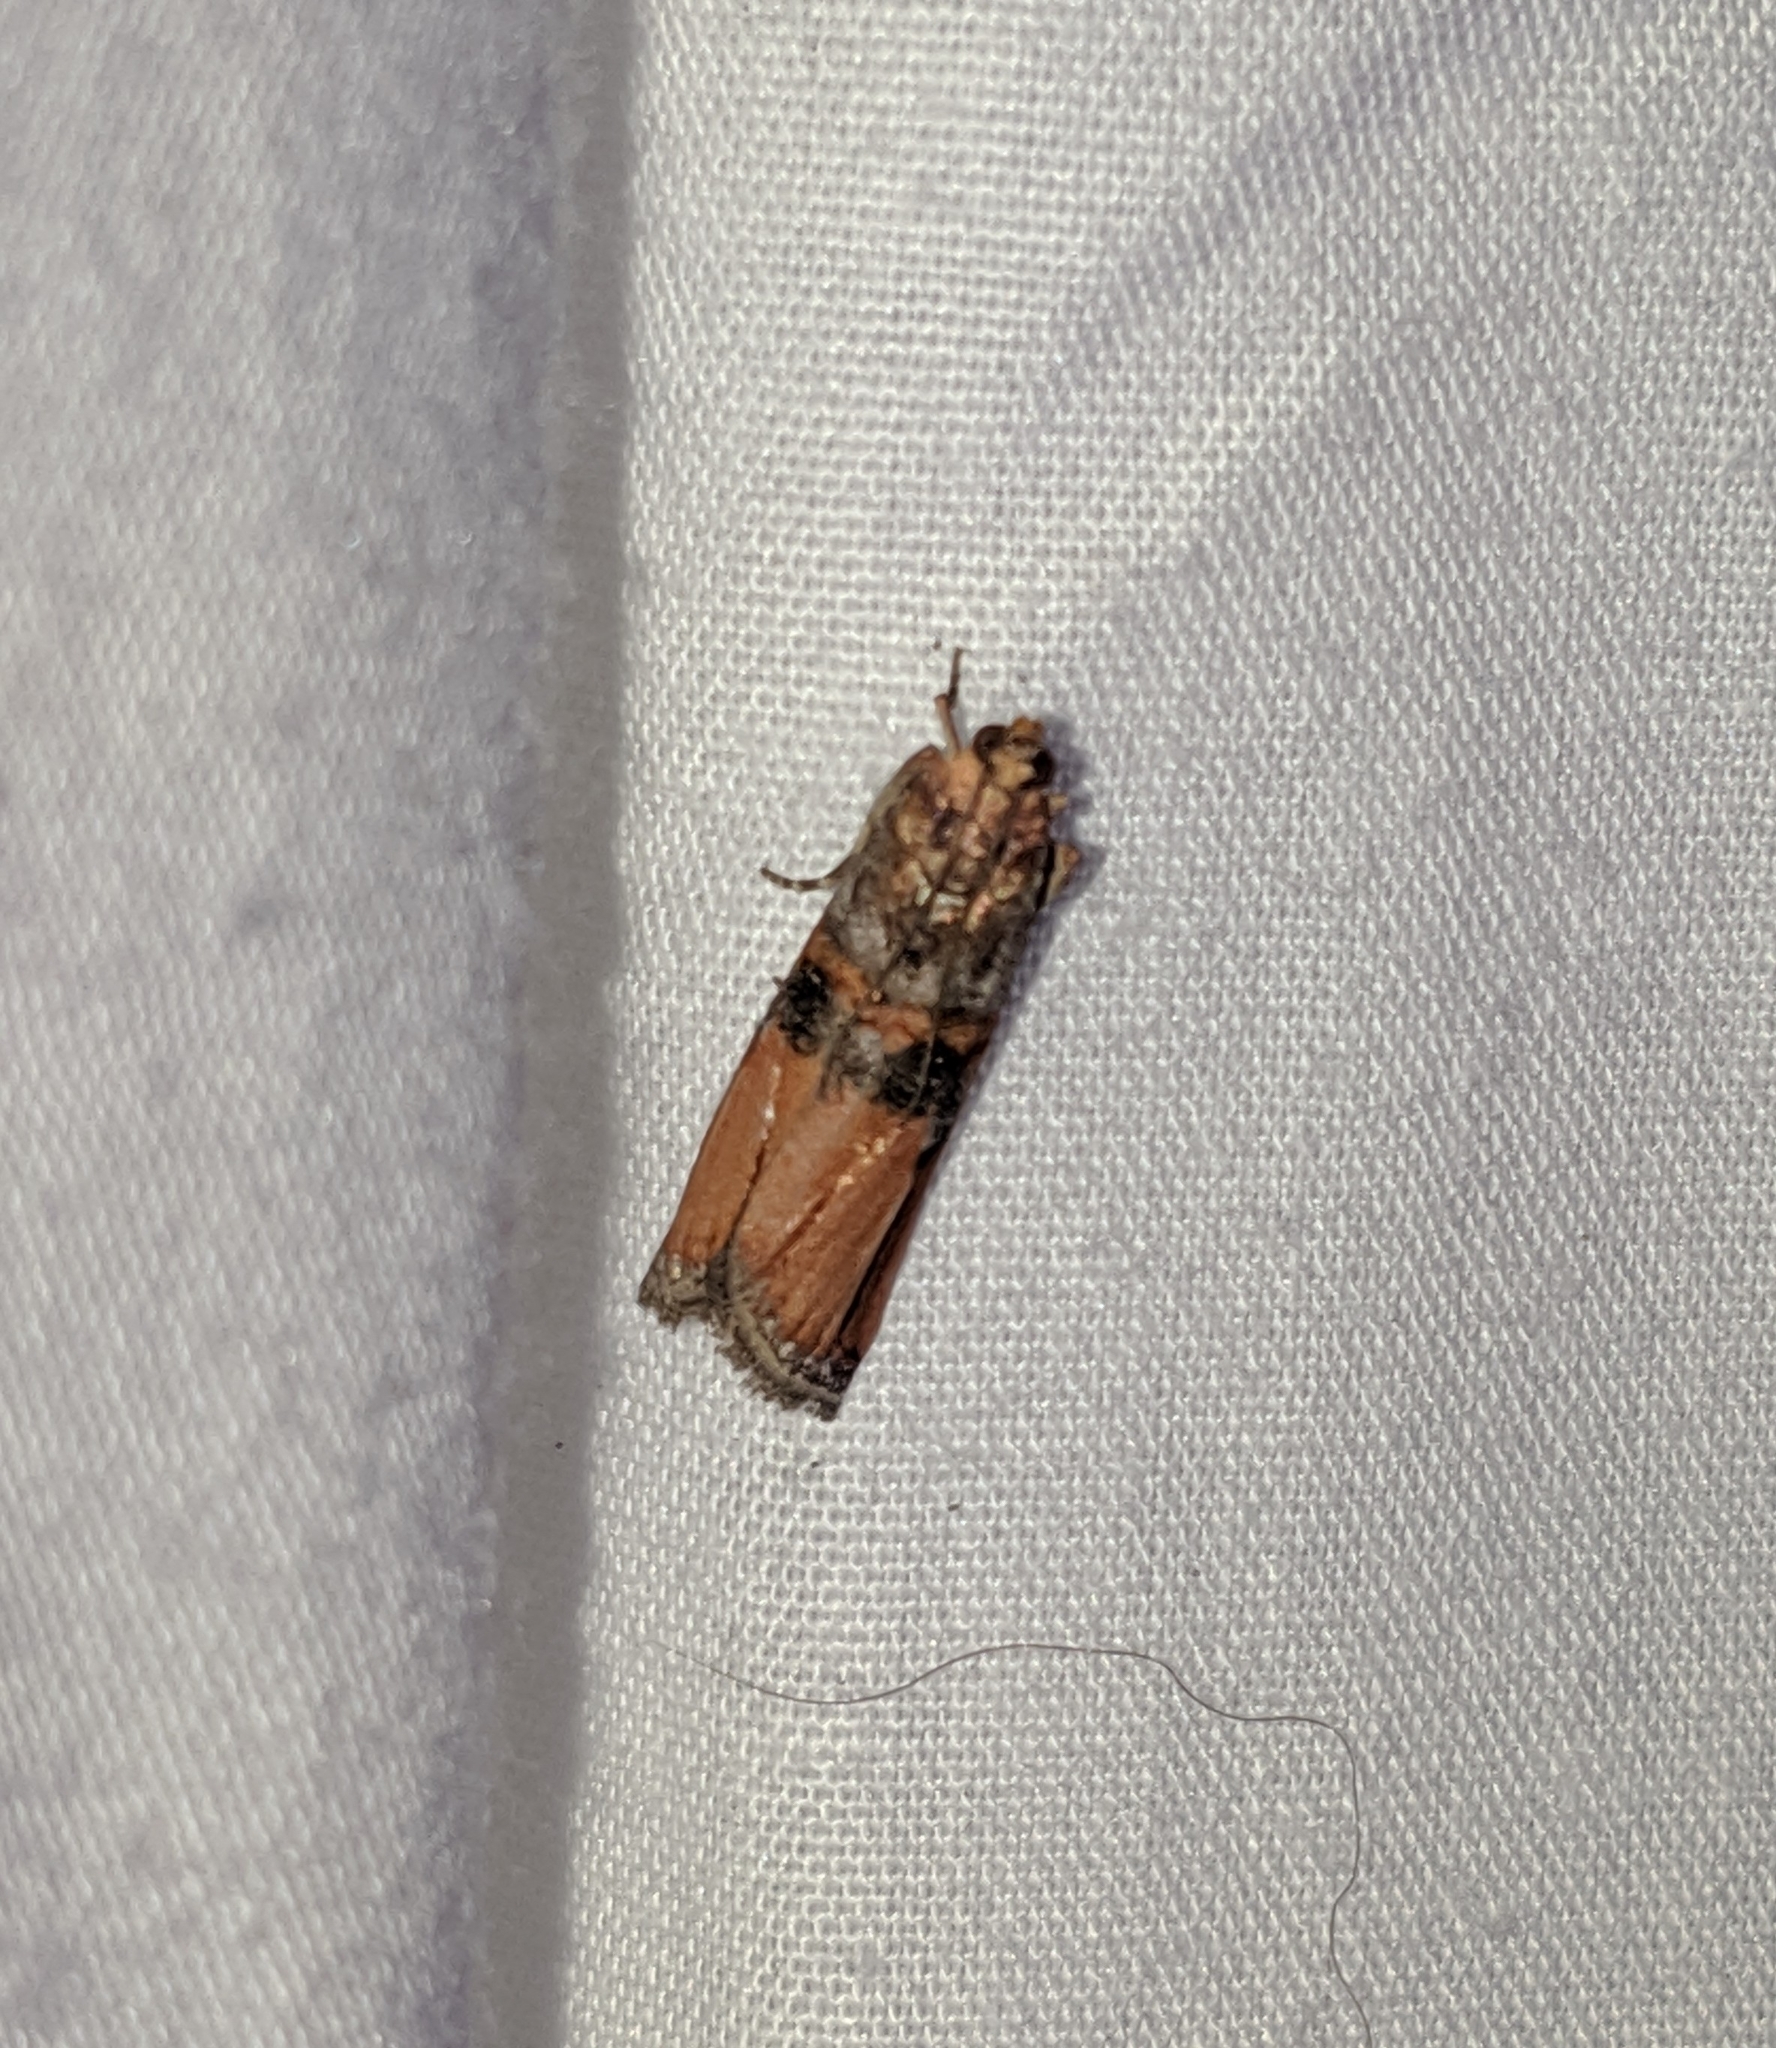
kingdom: Animalia
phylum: Arthropoda
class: Insecta
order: Lepidoptera
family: Pyralidae
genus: Dasypyga
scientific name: Dasypyga alternosquamella
